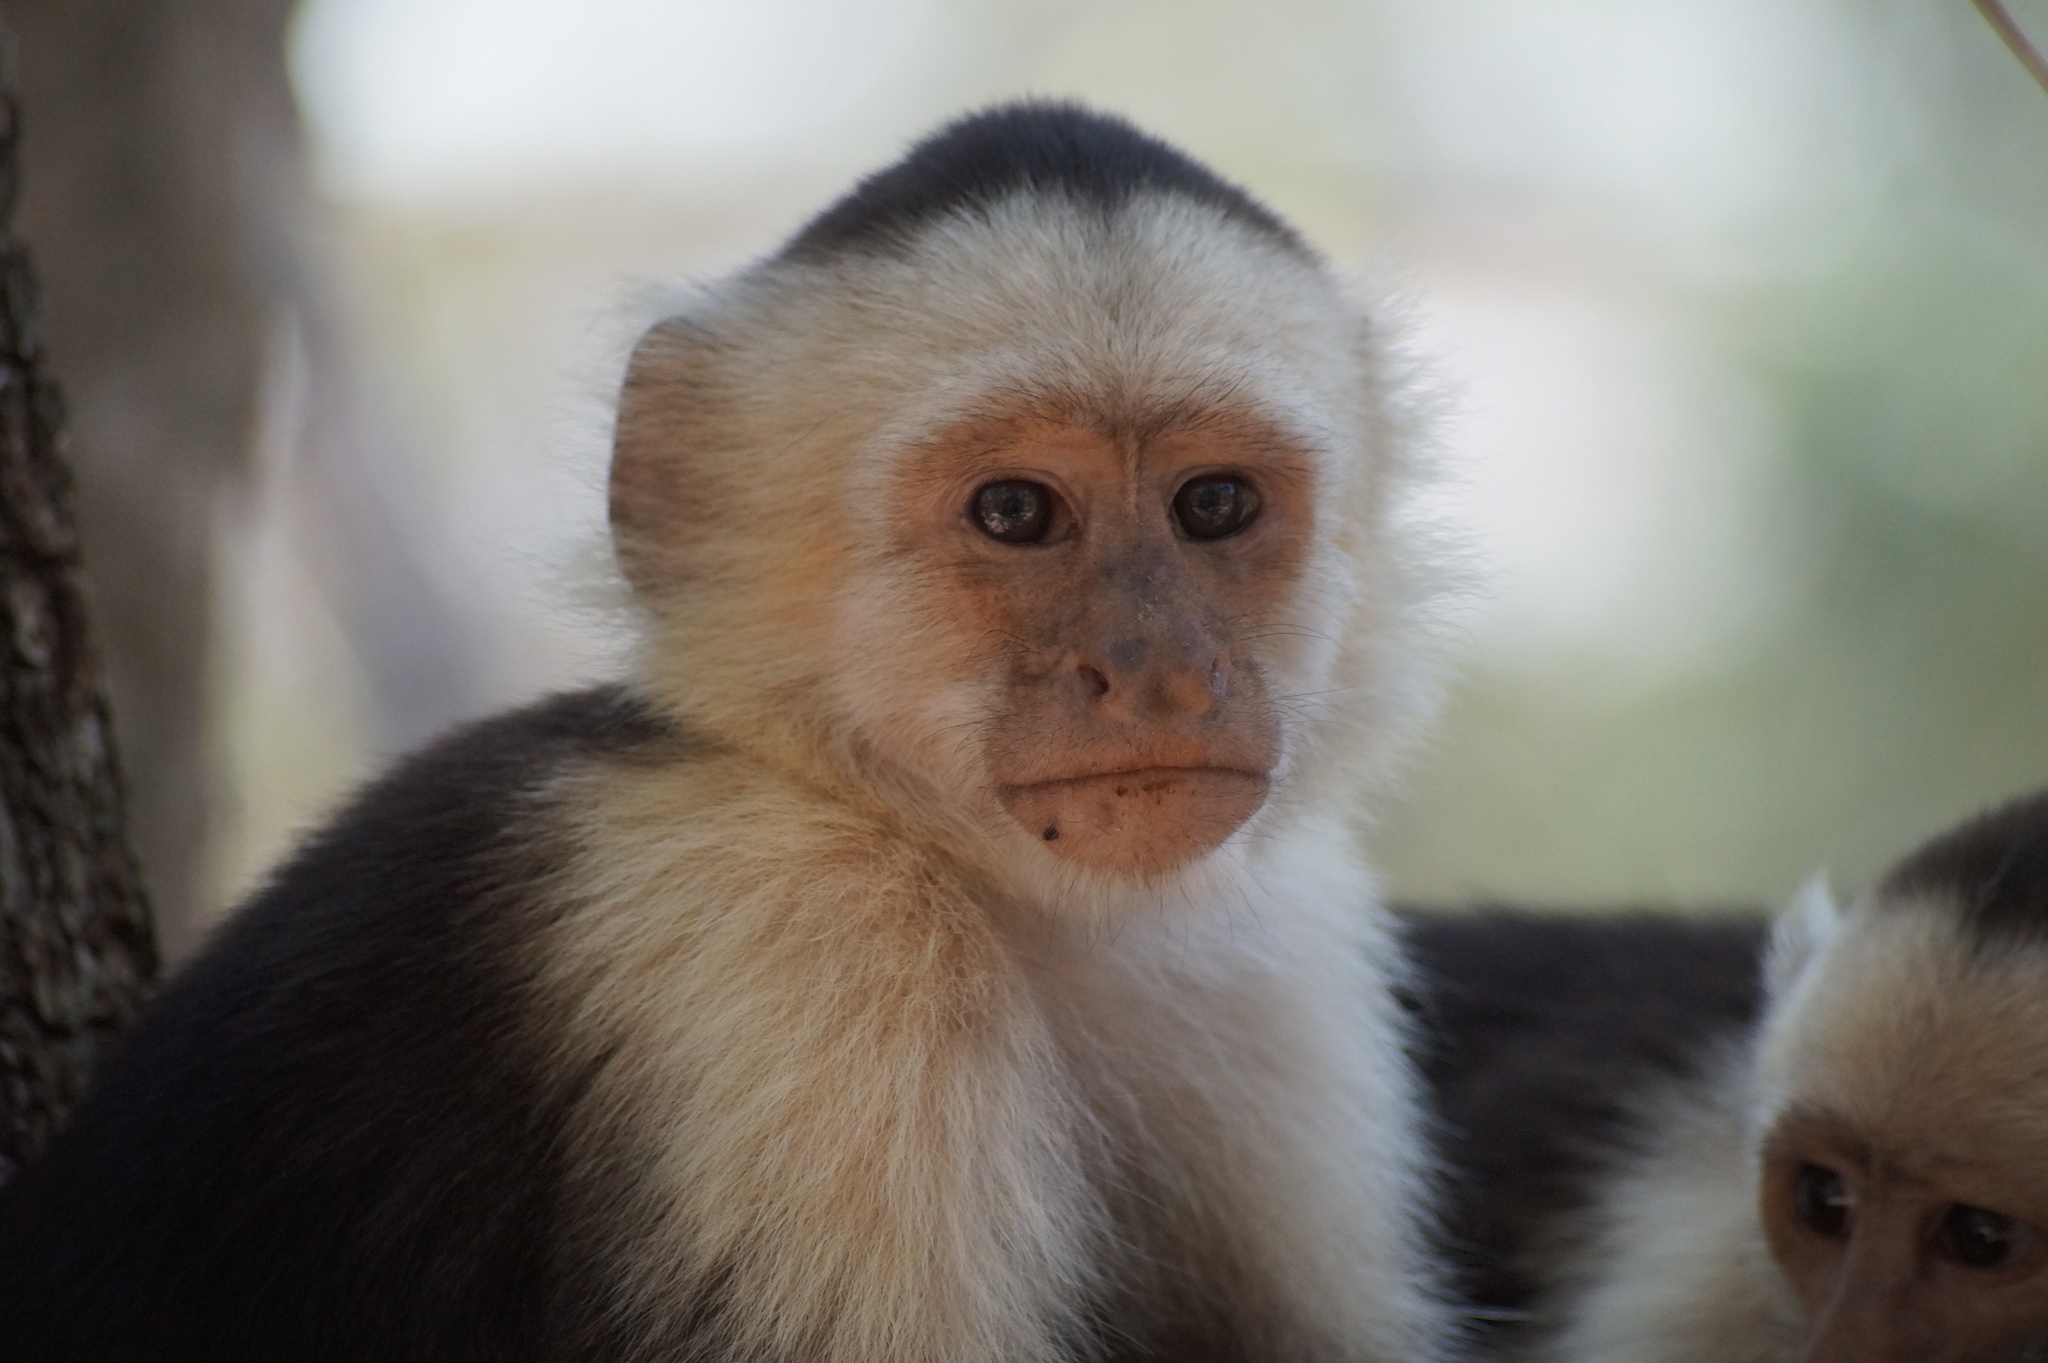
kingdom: Animalia
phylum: Chordata
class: Mammalia
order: Primates
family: Cebidae
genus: Cebus
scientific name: Cebus imitator
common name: Panamanian white-faced capuchin
